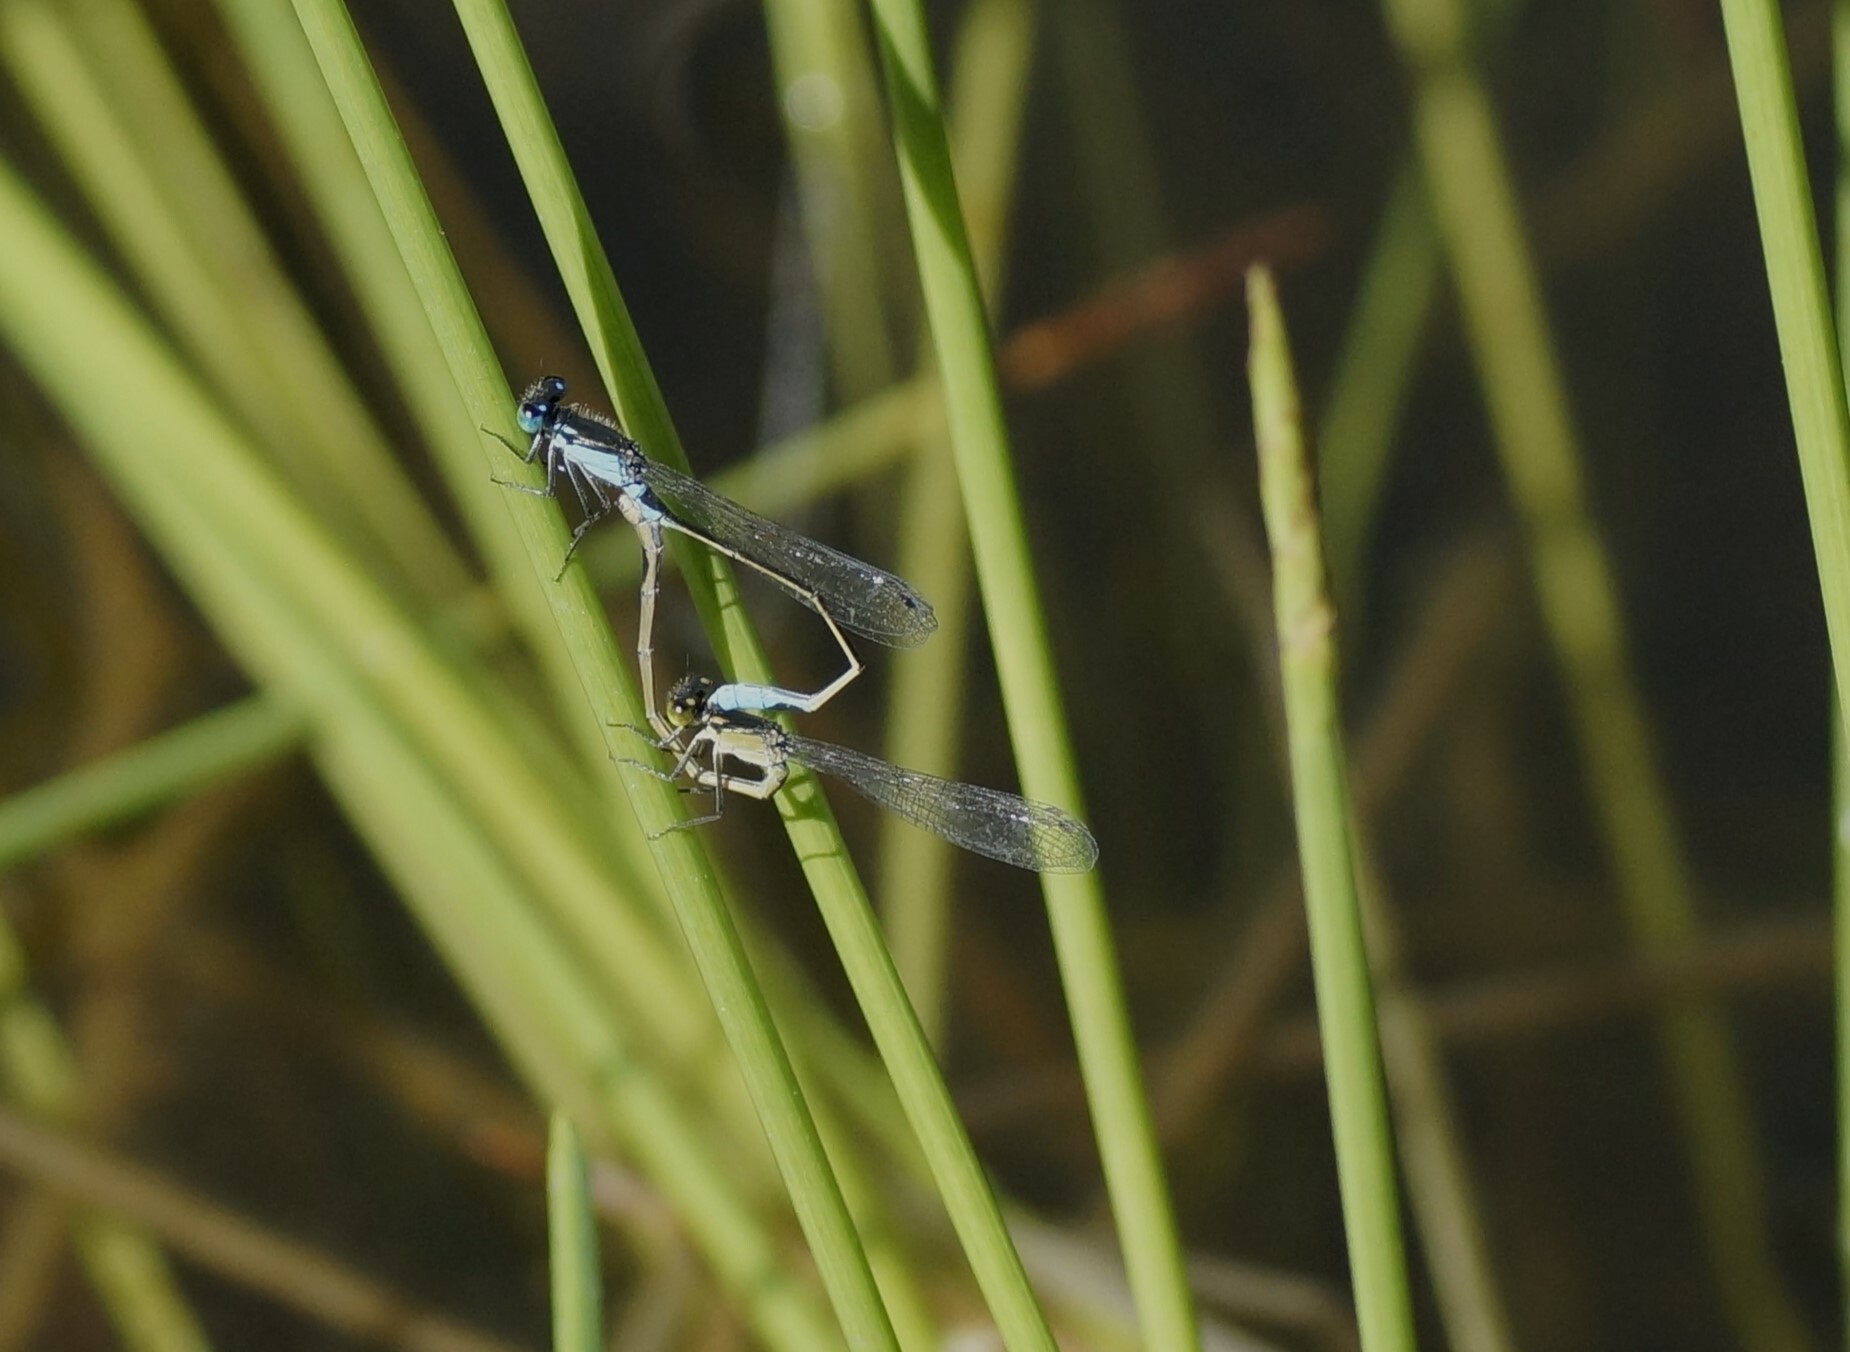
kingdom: Animalia
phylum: Arthropoda
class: Insecta
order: Odonata
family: Coenagrionidae
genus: Ischnura
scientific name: Ischnura heterosticta
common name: Common bluetail
